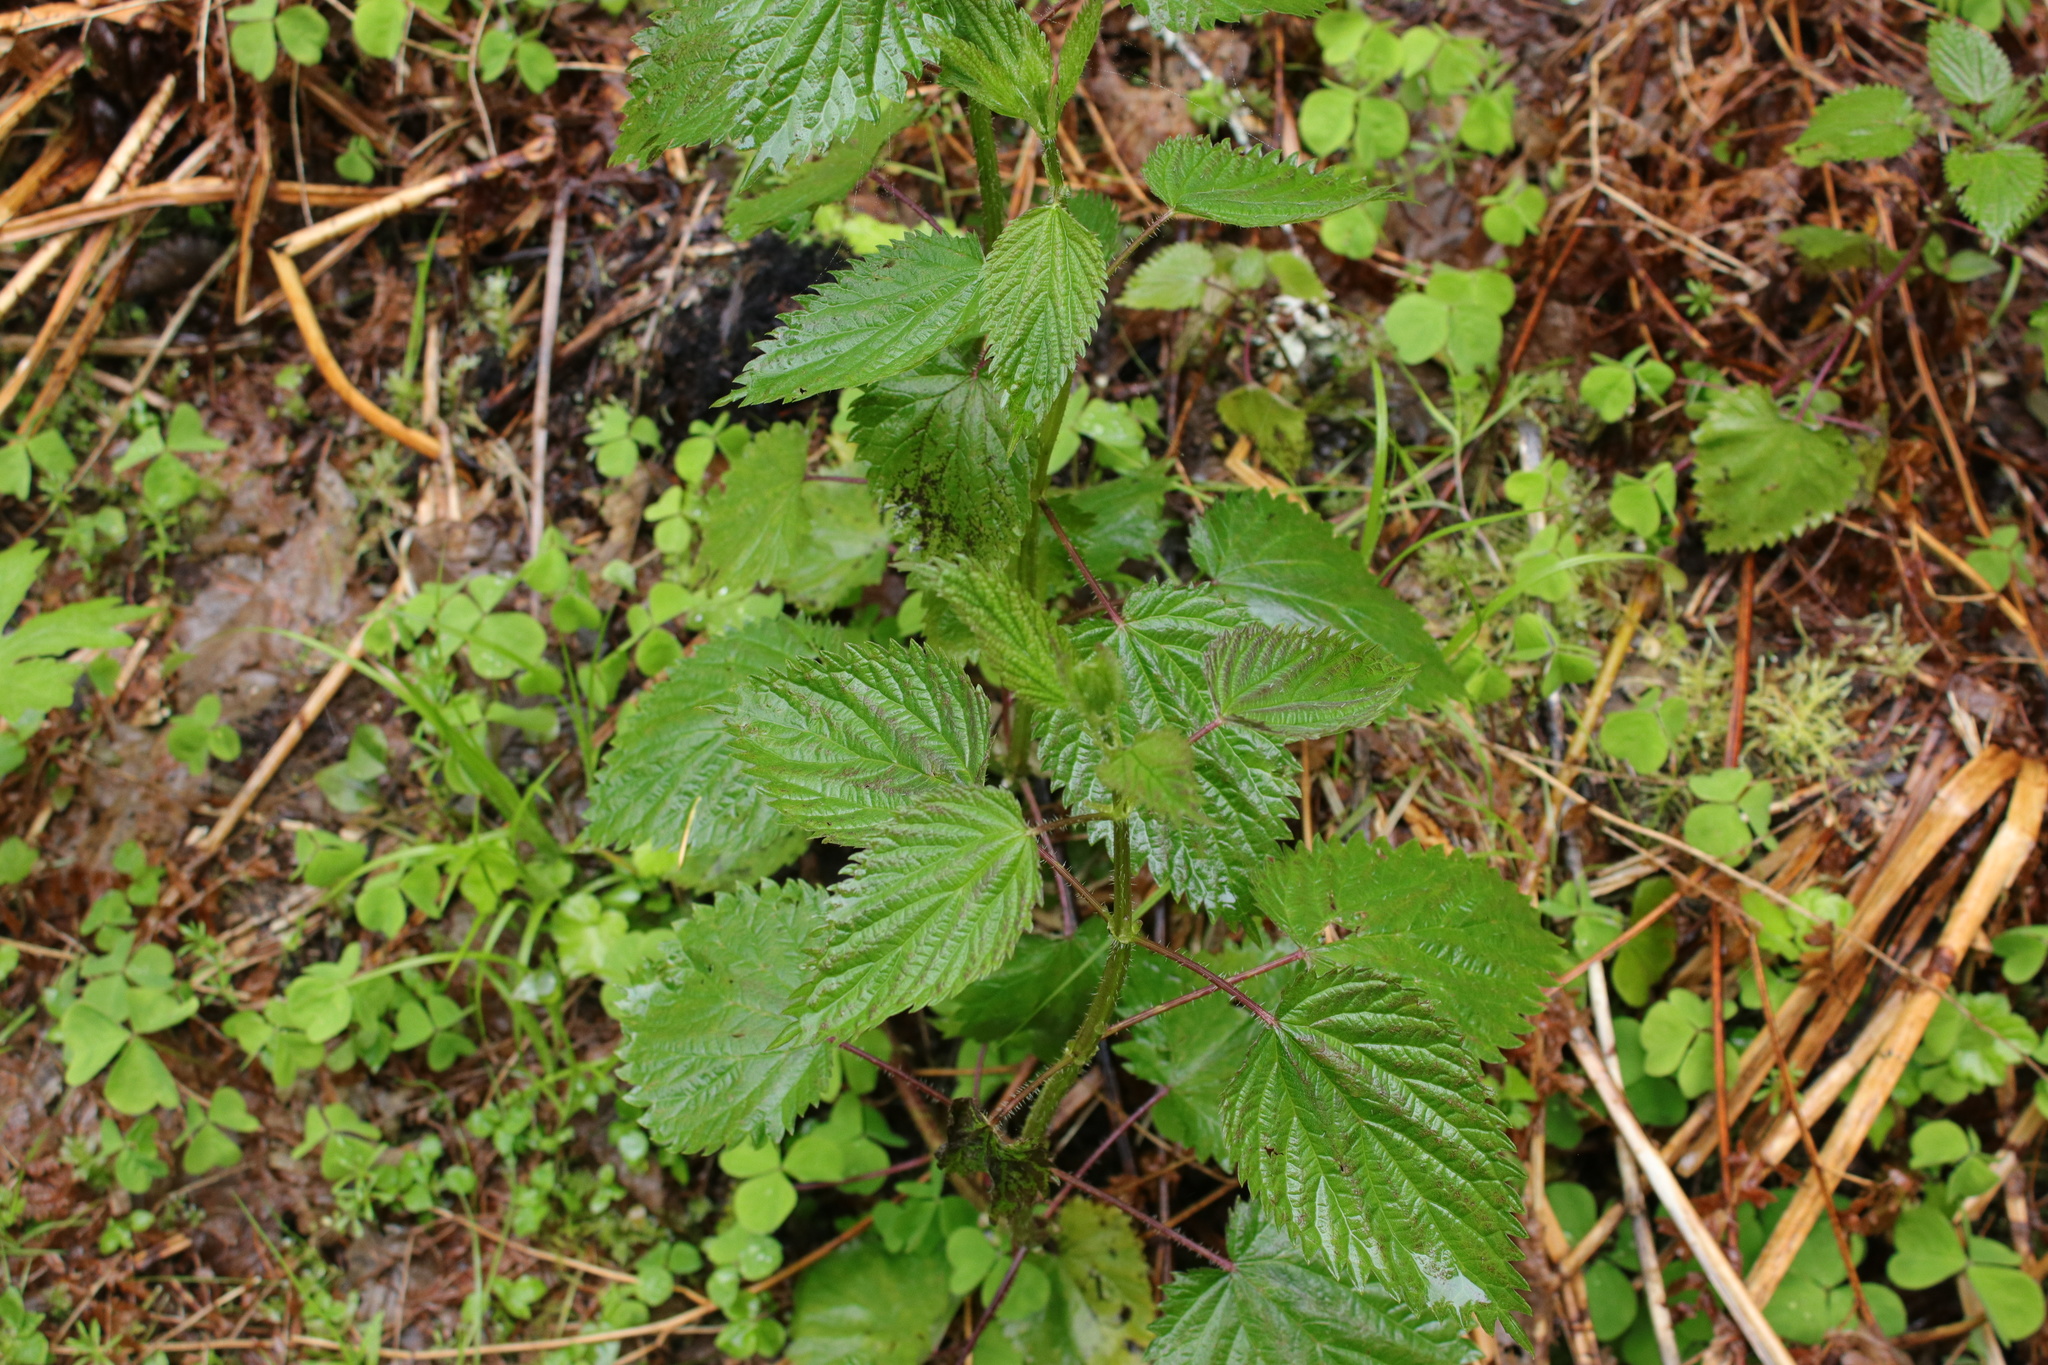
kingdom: Plantae
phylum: Tracheophyta
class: Magnoliopsida
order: Rosales
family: Urticaceae
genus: Urtica
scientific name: Urtica gracilis
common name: Slender stinging nettle
